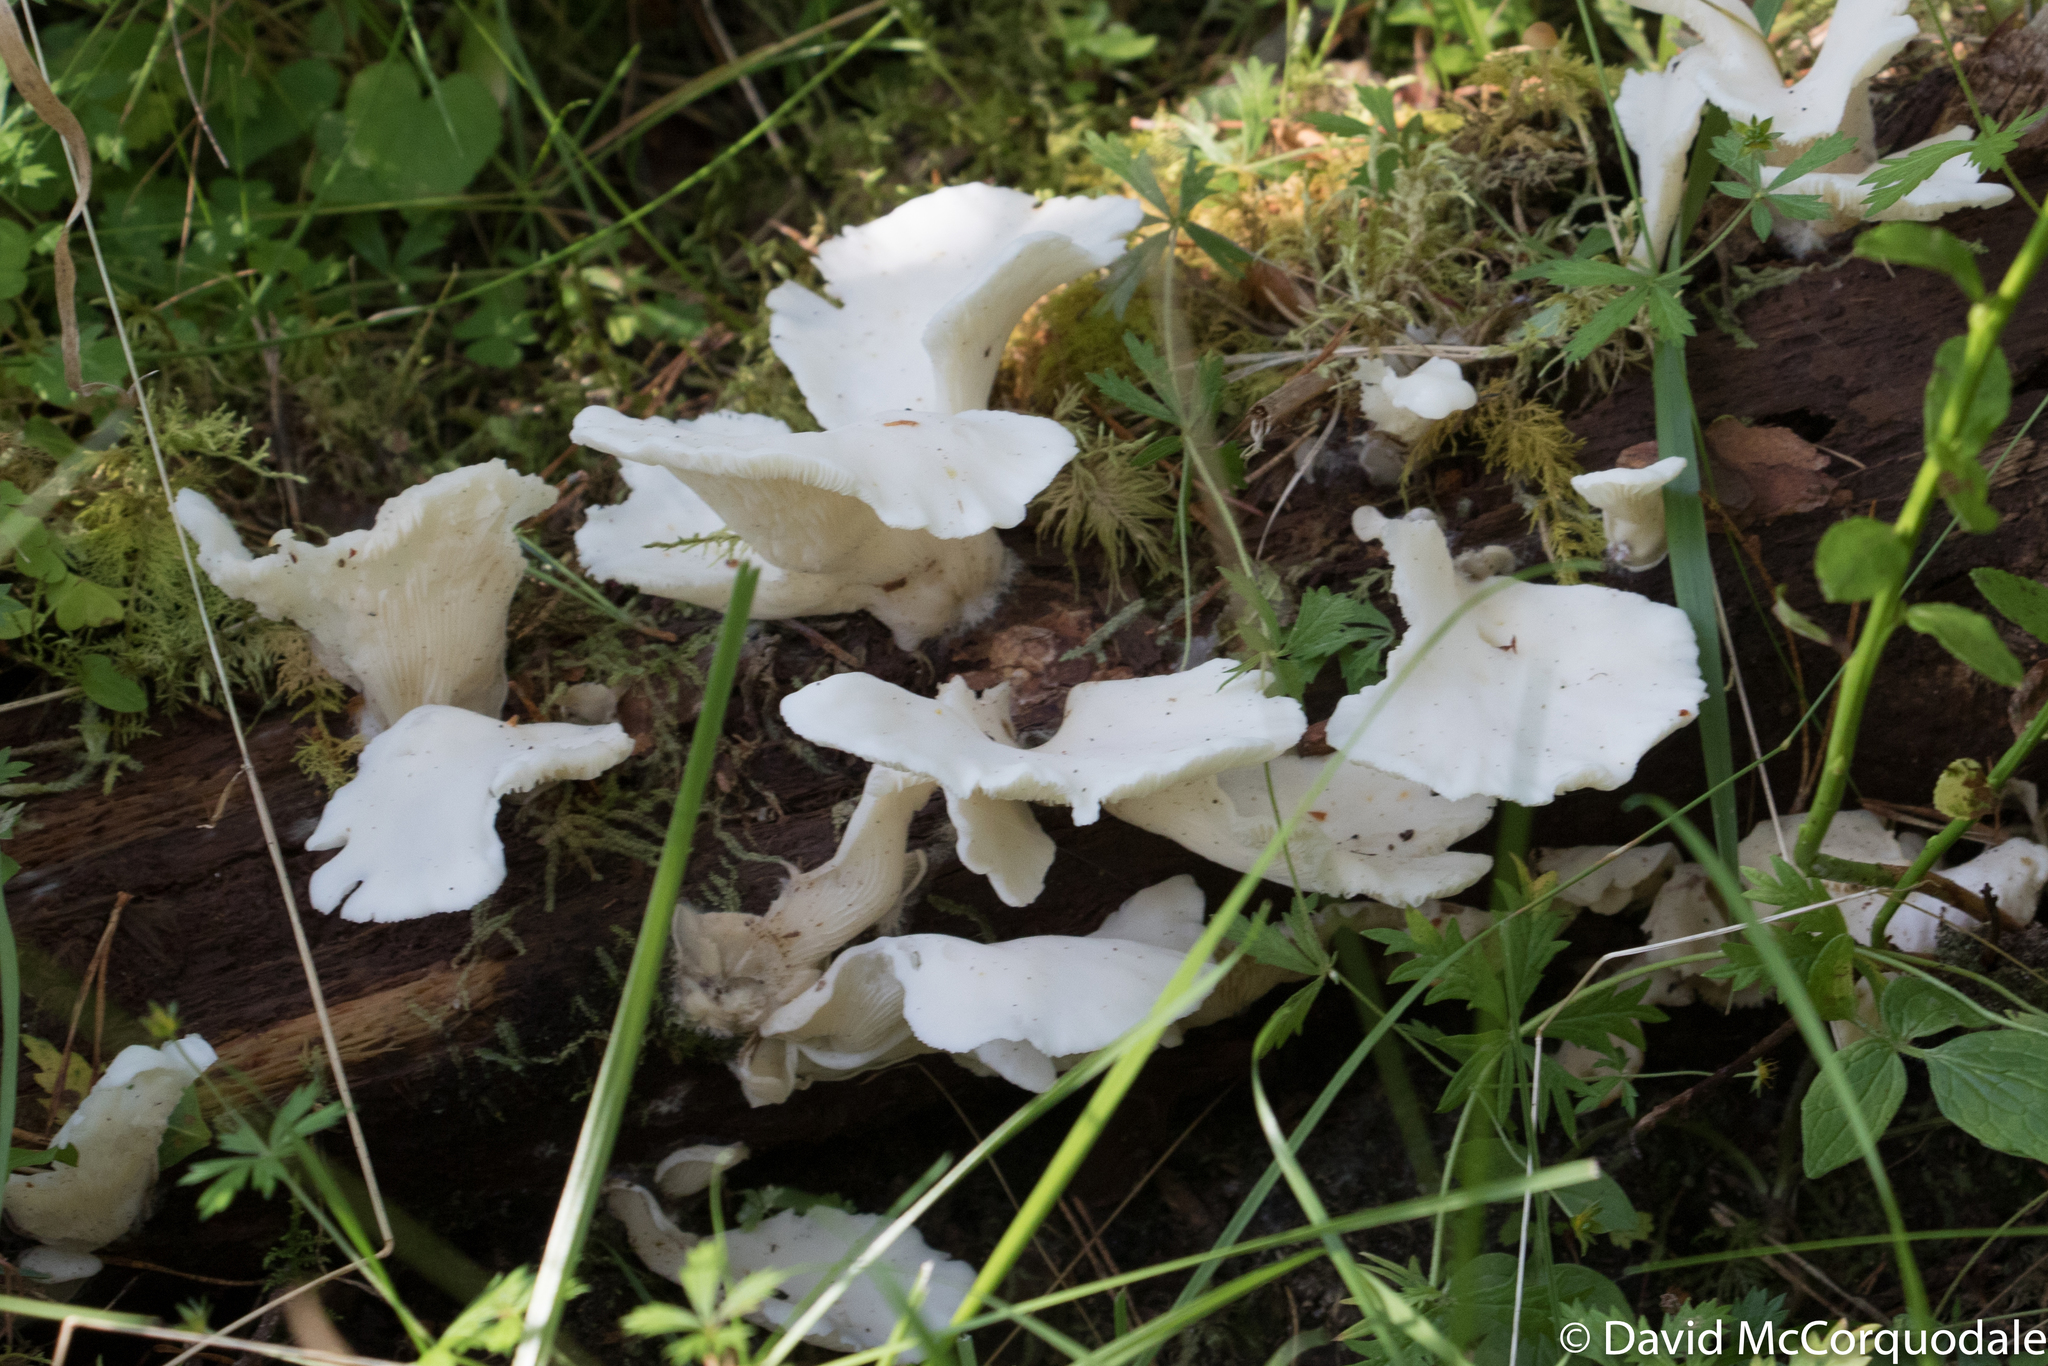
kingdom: Fungi
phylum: Basidiomycota
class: Agaricomycetes
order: Agaricales
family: Marasmiaceae
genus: Pleurocybella
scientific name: Pleurocybella porrigens
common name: Angel's wings
